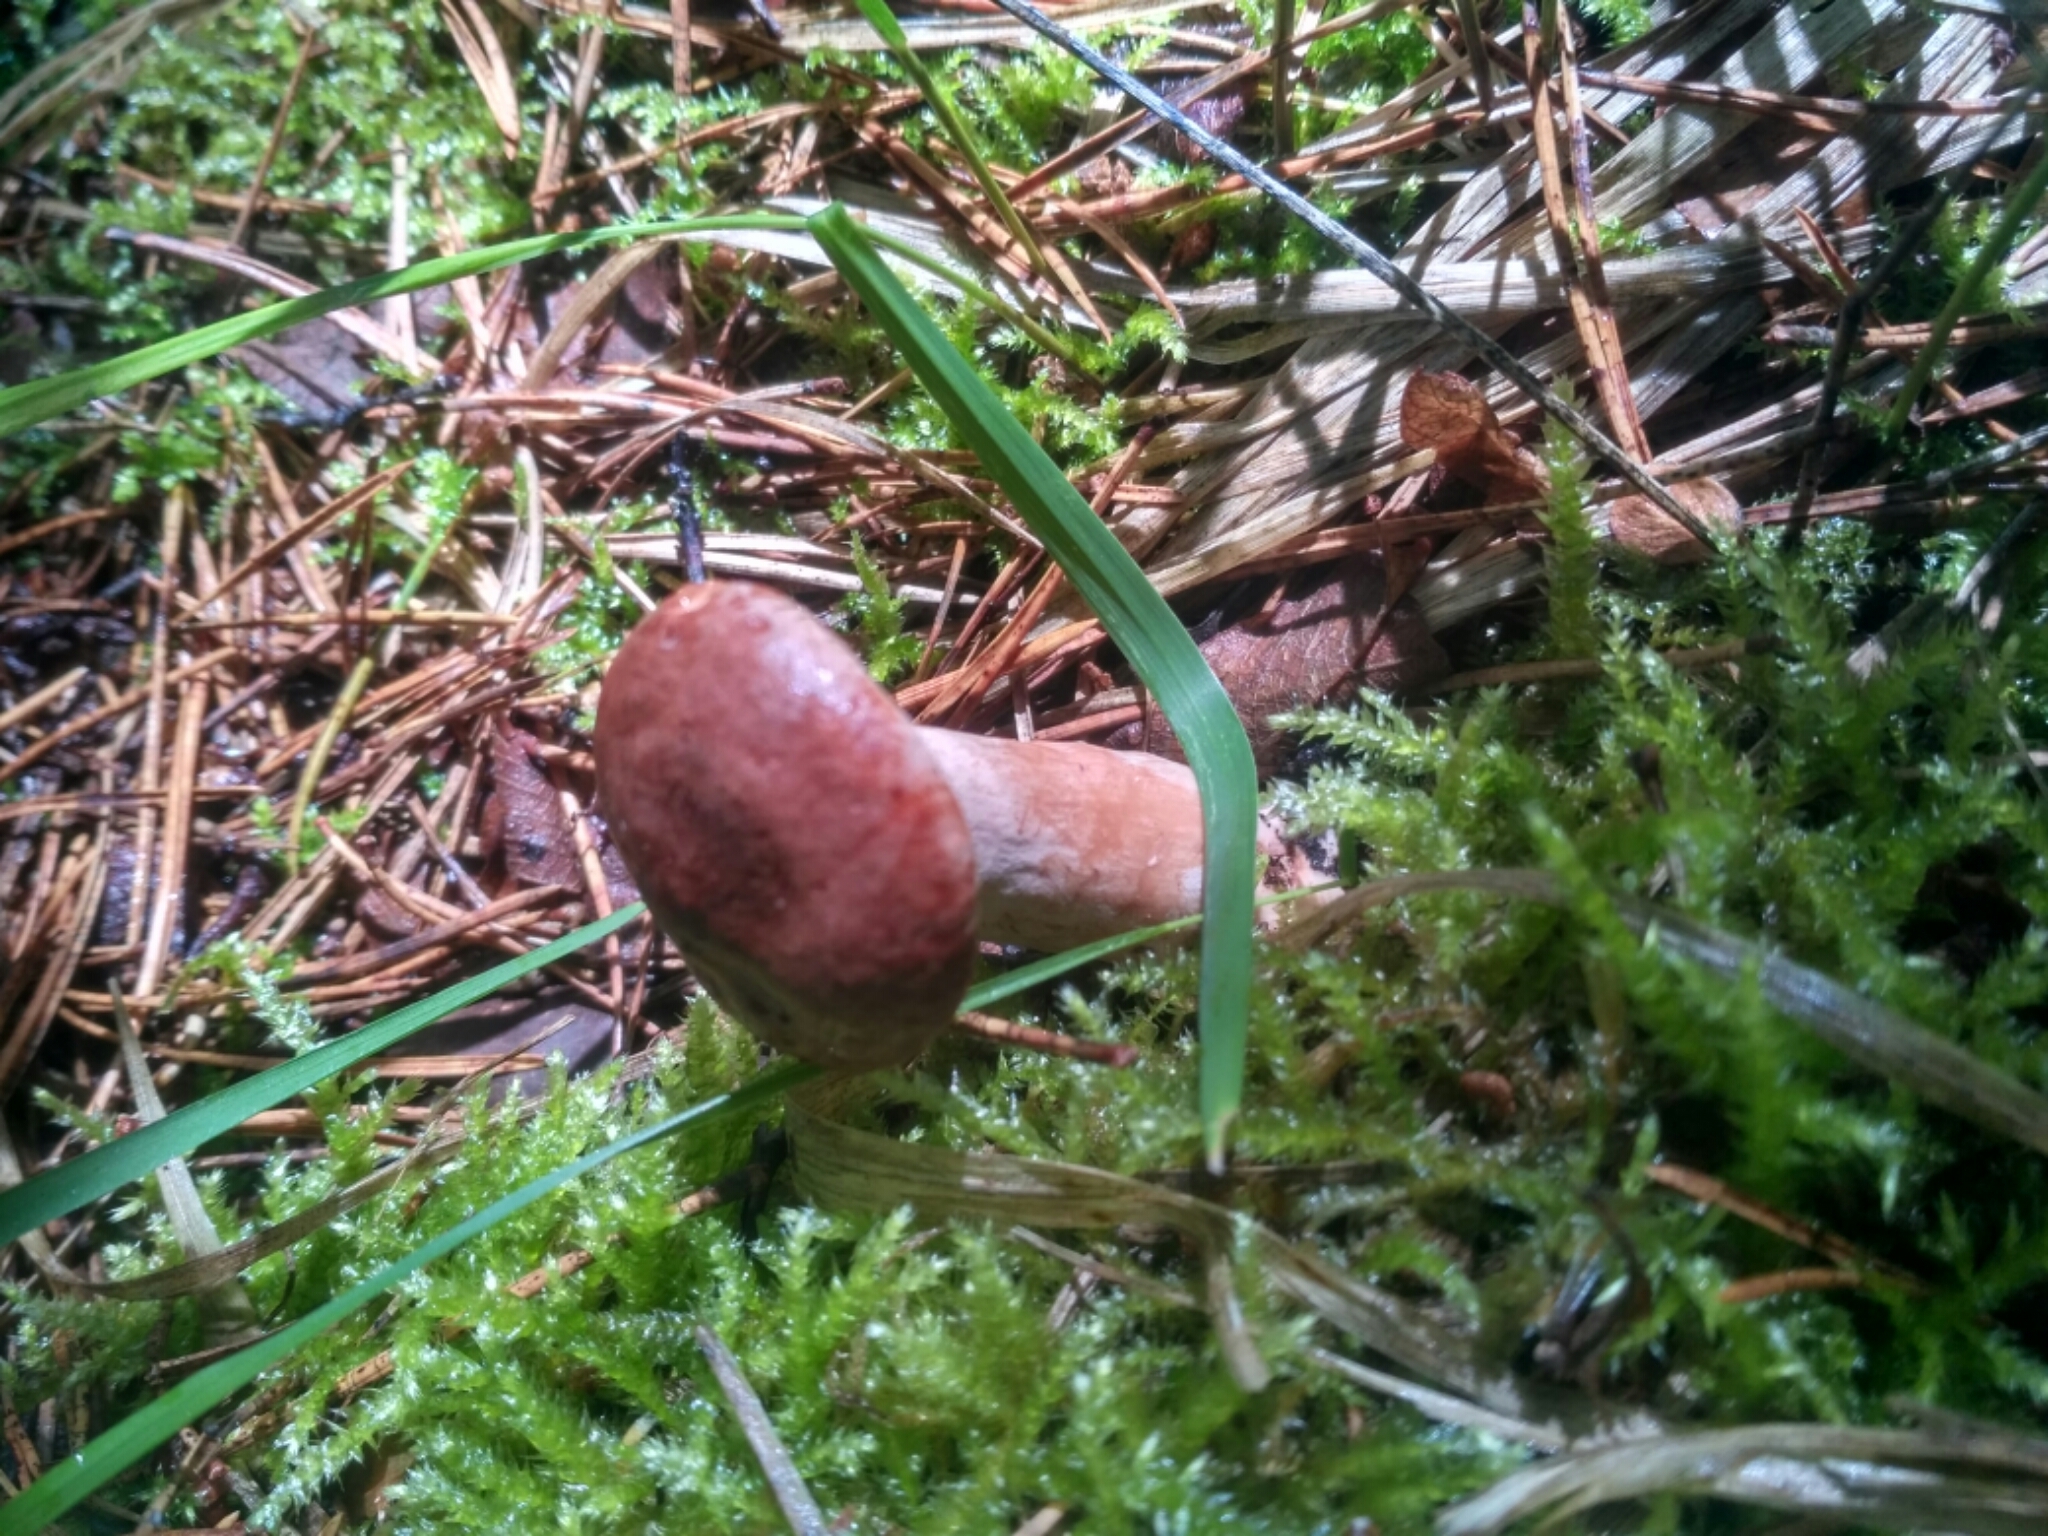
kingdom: Fungi
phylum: Basidiomycota
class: Agaricomycetes
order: Russulales
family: Russulaceae
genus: Lactarius
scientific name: Lactarius rufus
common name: Rufous milk-cap
